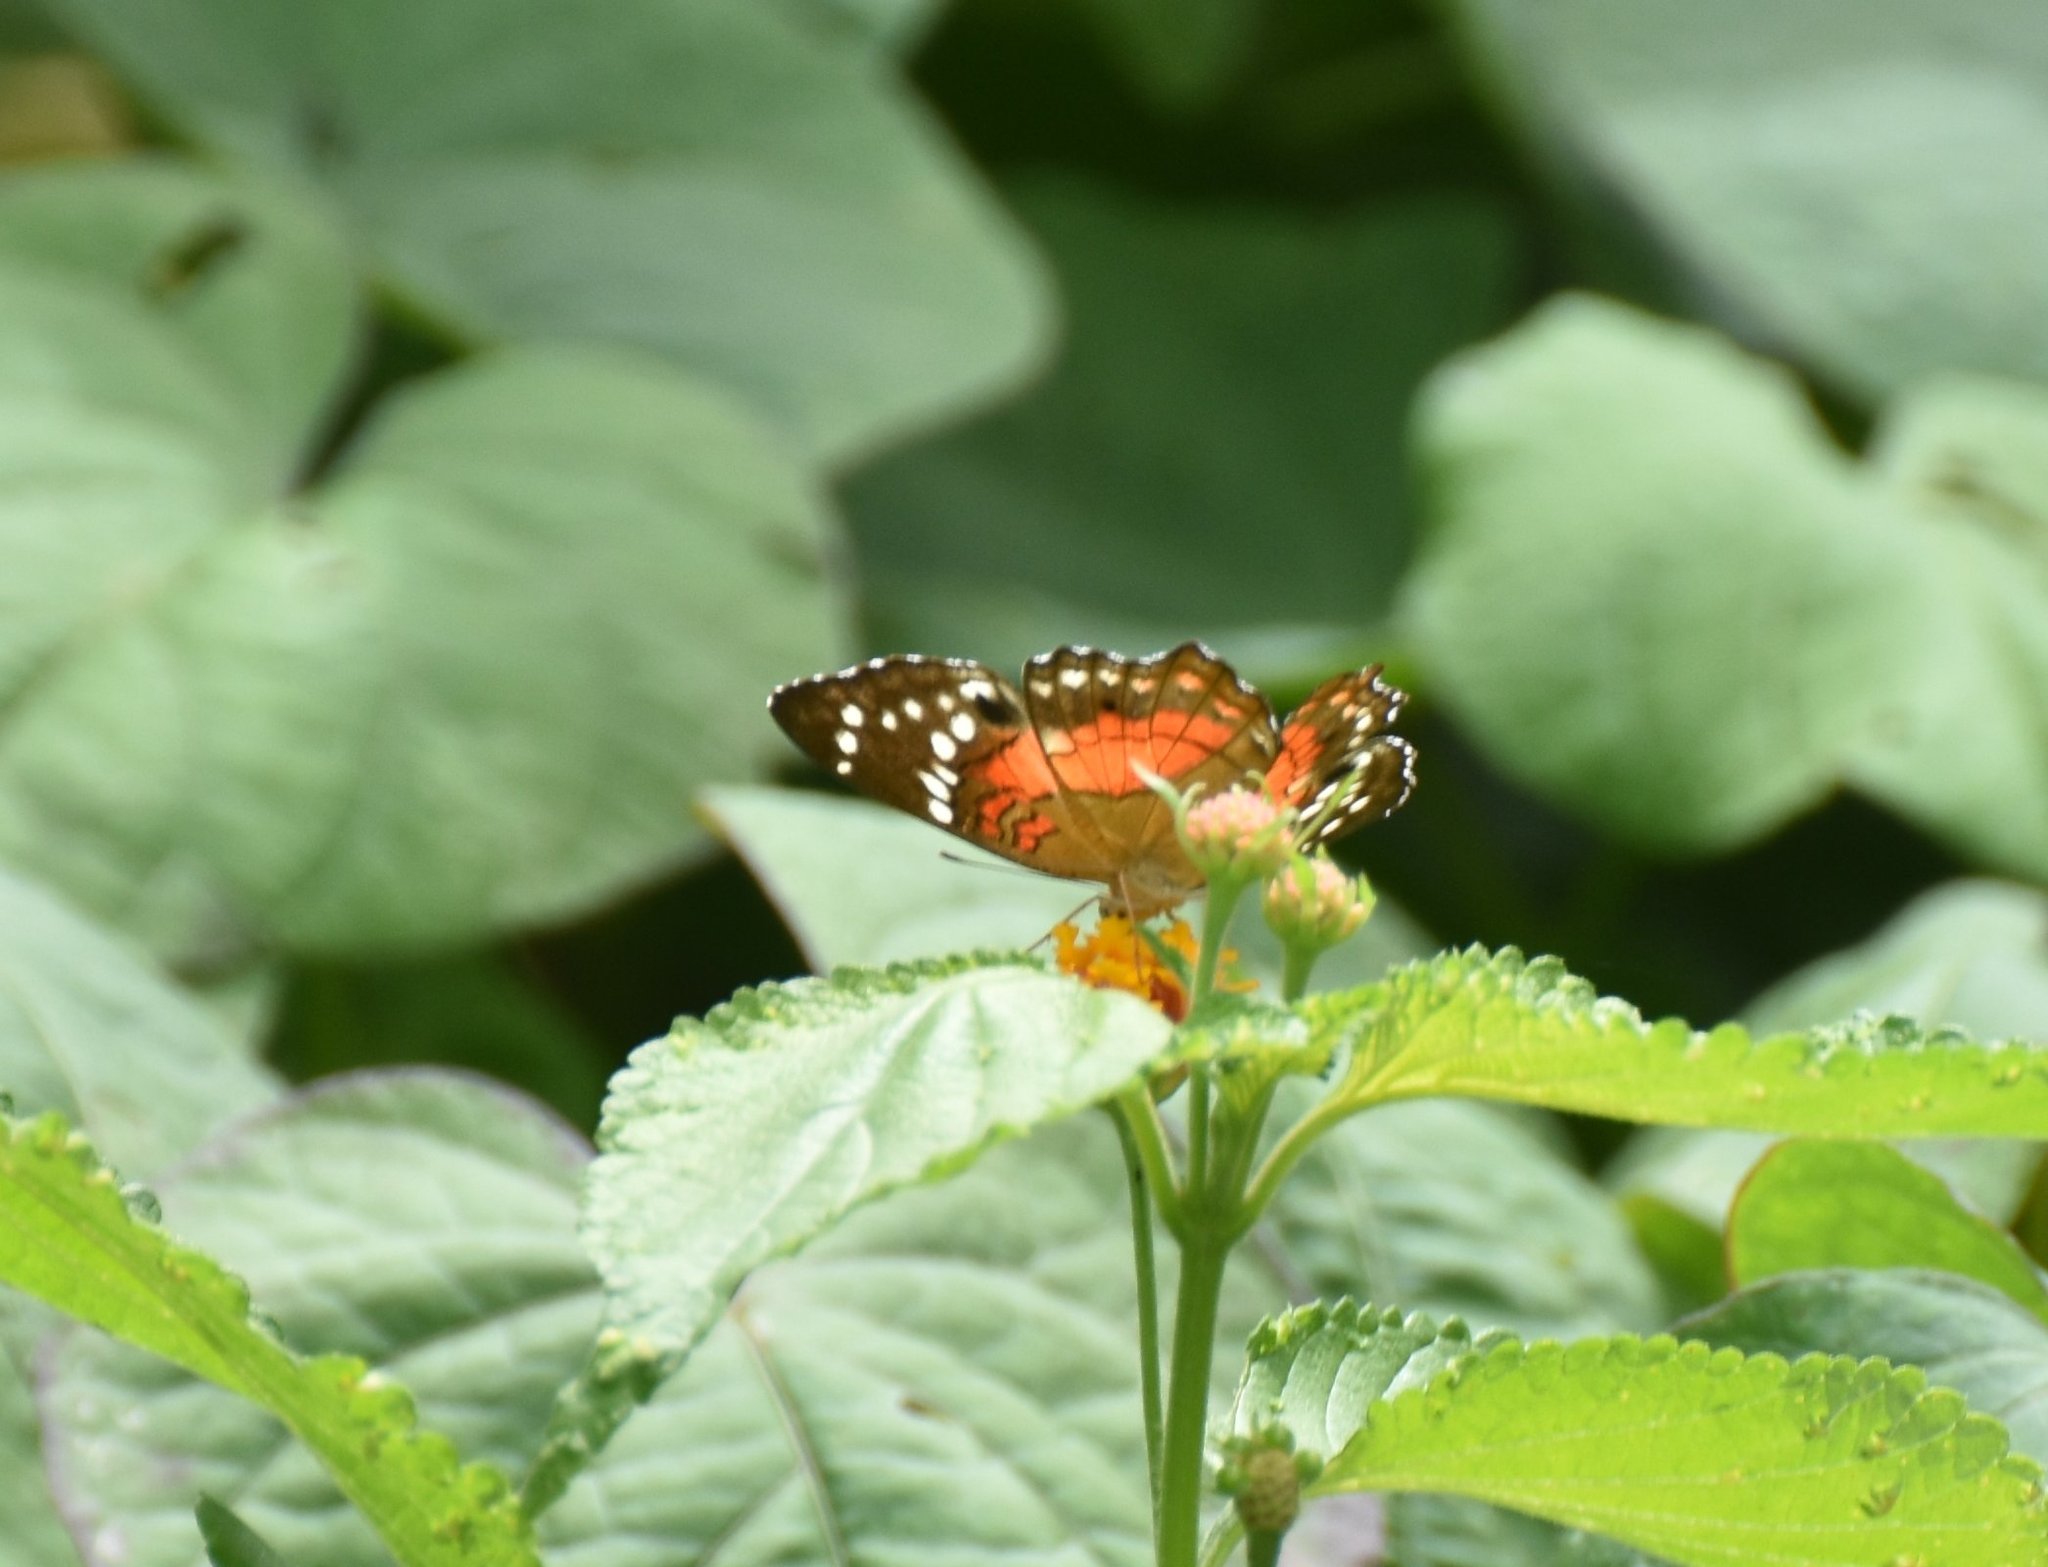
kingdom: Animalia
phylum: Arthropoda
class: Insecta
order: Lepidoptera
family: Nymphalidae
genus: Anartia
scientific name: Anartia amathea
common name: Red peacock
